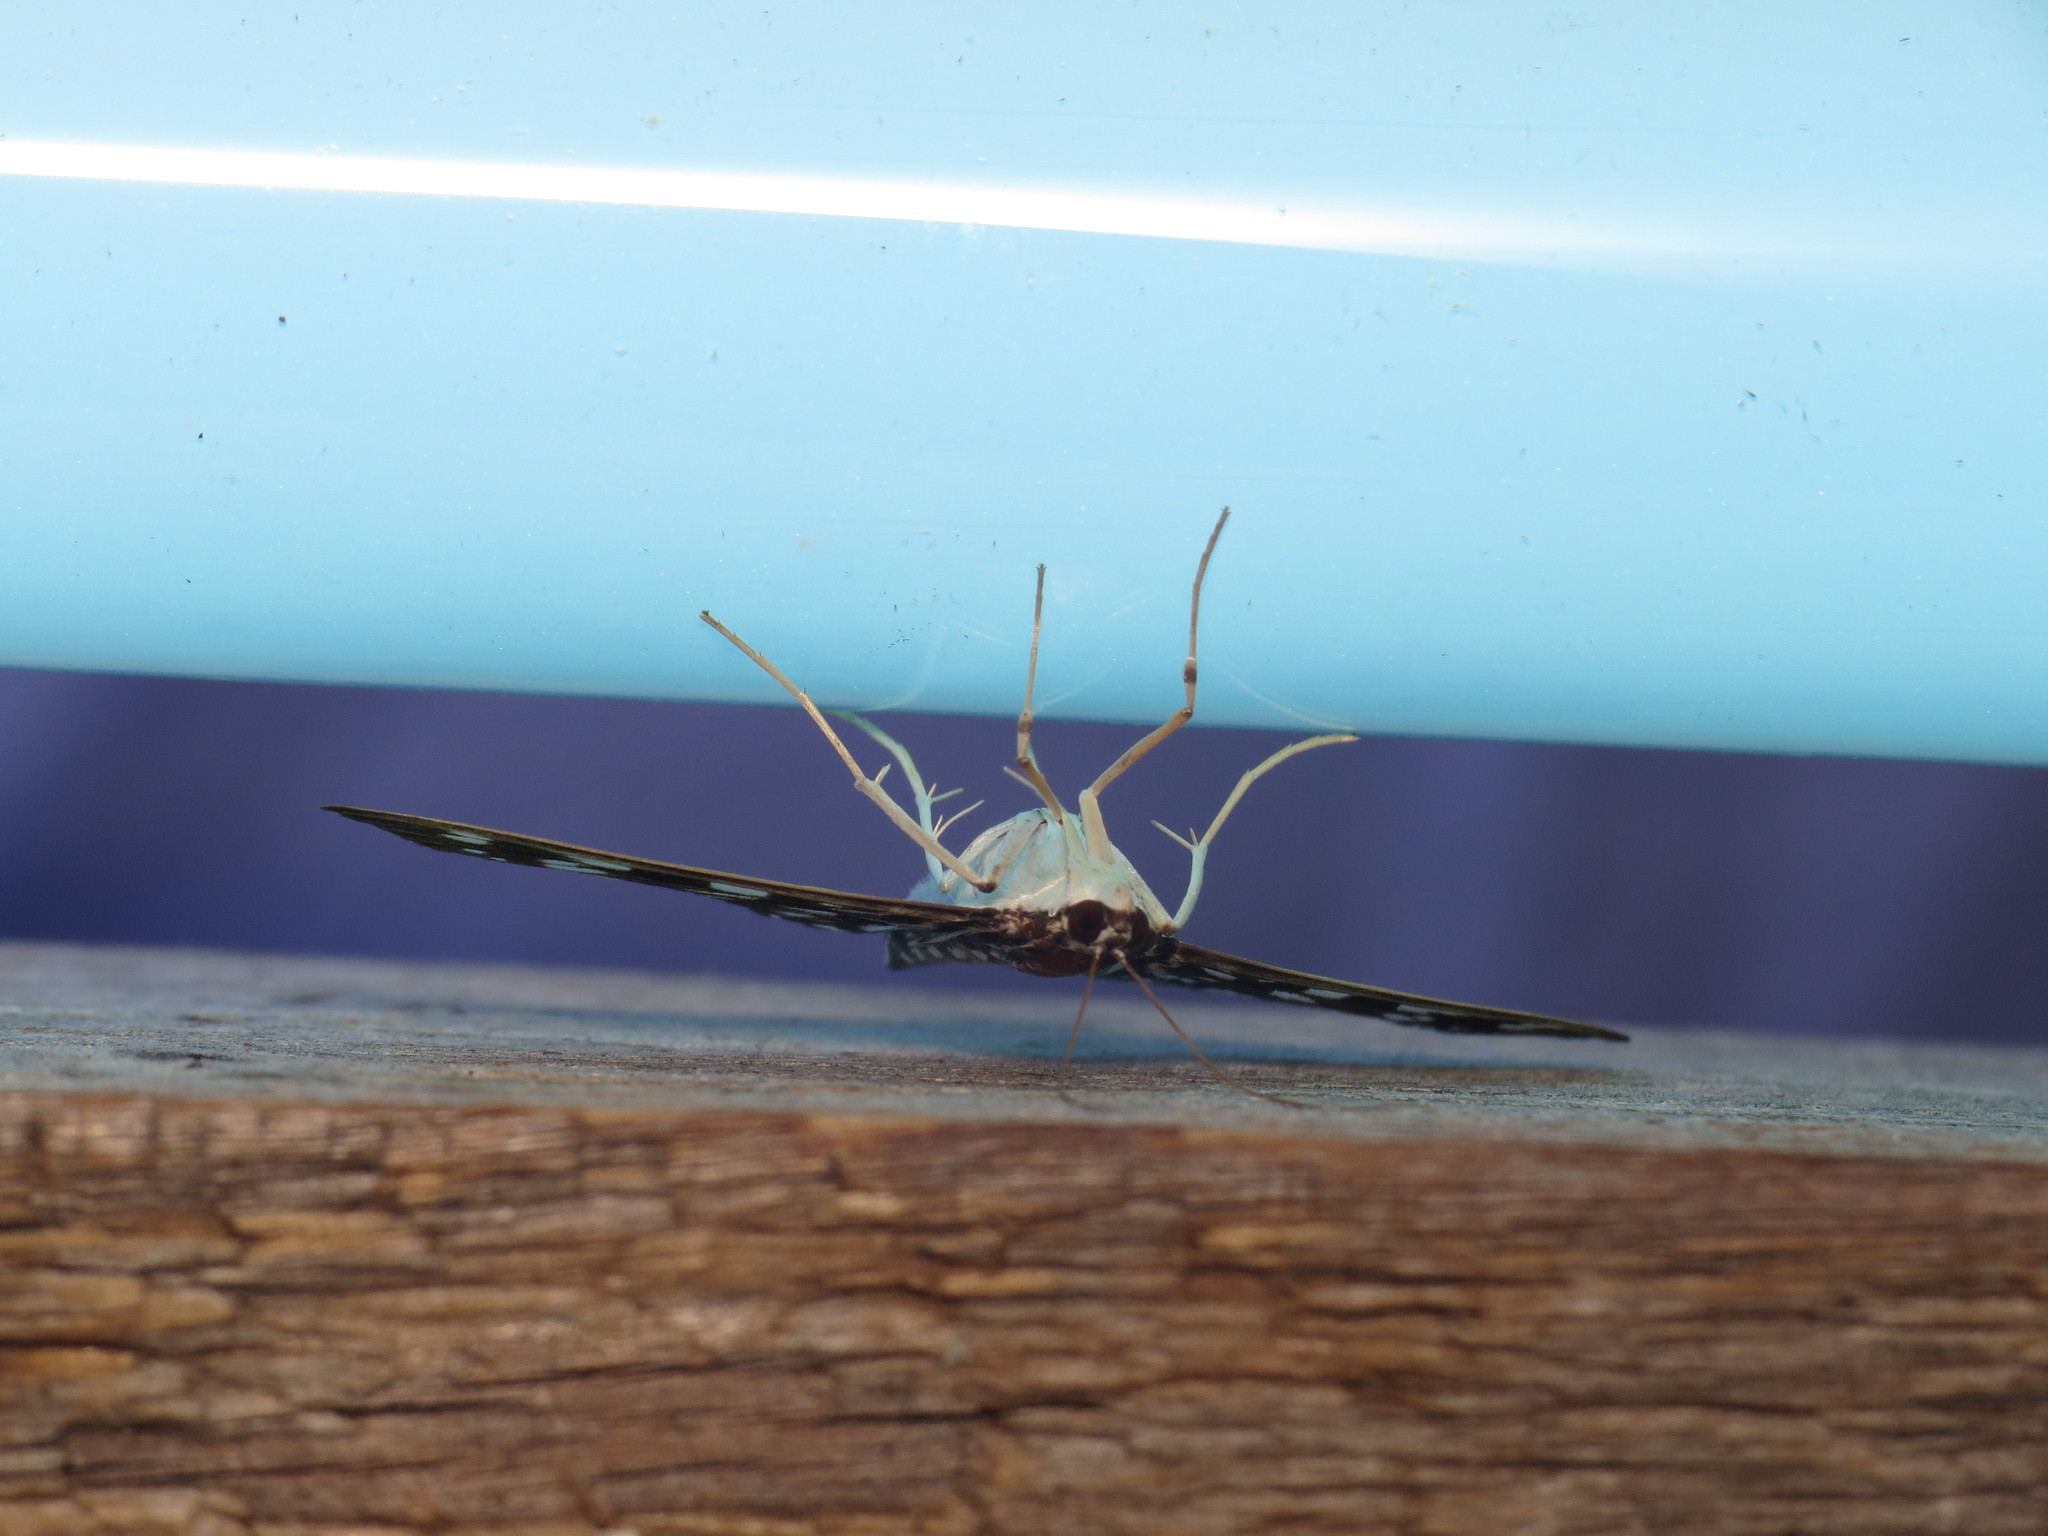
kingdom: Animalia
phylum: Arthropoda
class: Insecta
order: Lepidoptera
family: Crambidae
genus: Pygospila
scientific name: Pygospila tyres
